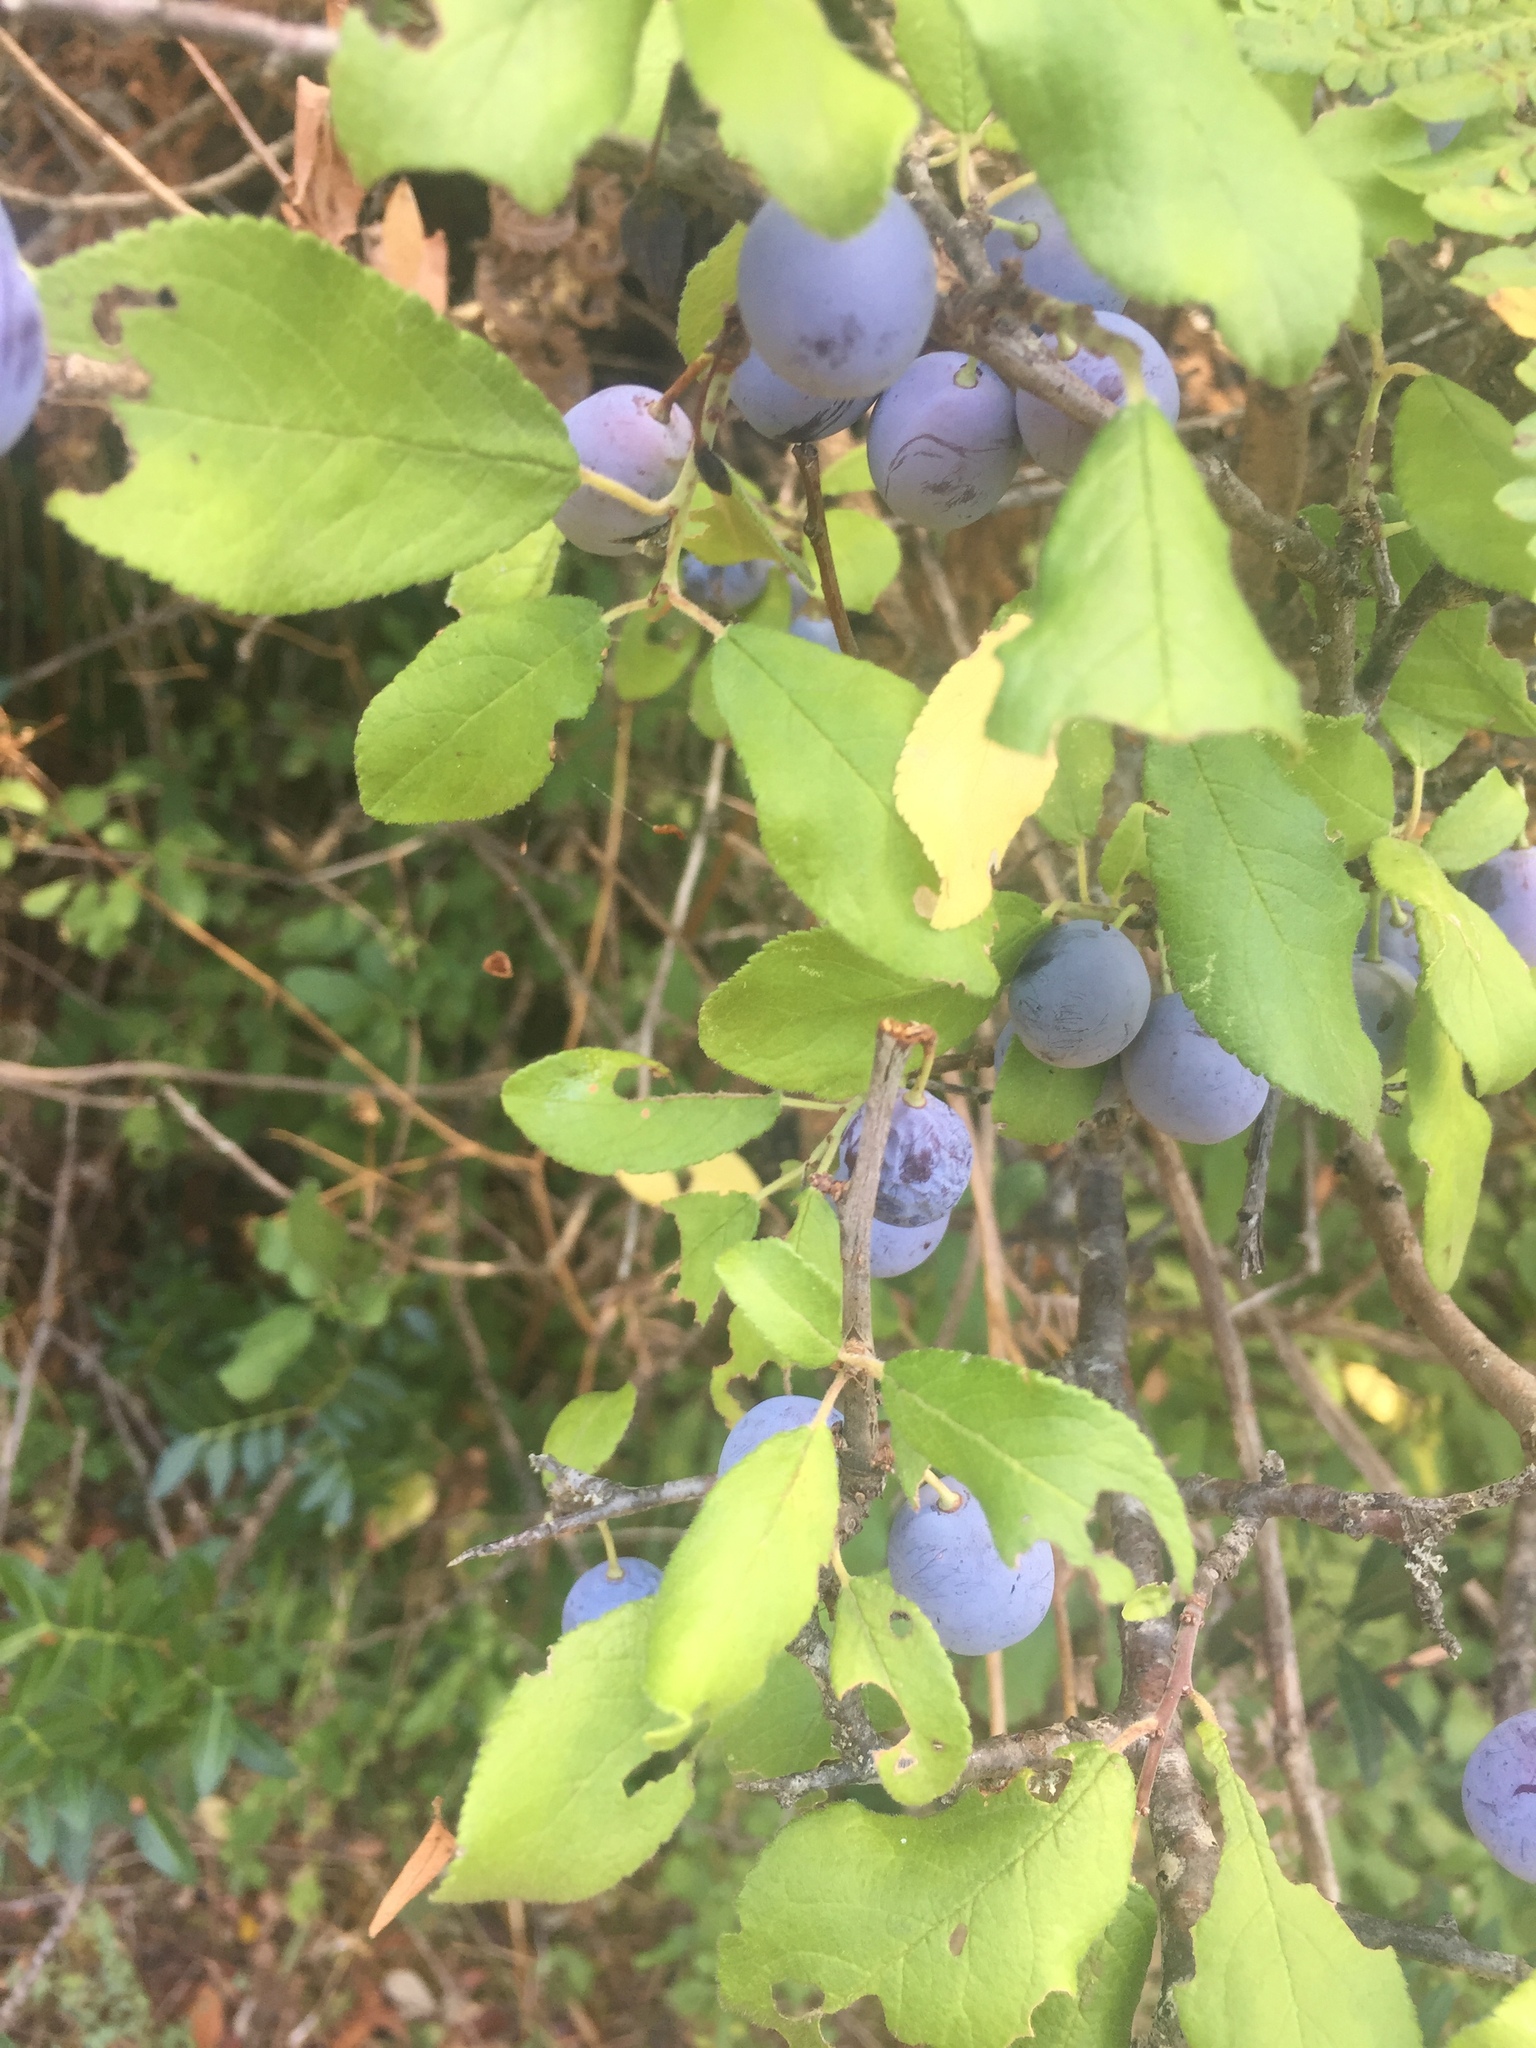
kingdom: Plantae
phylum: Tracheophyta
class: Magnoliopsida
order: Rosales
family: Rosaceae
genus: Prunus
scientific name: Prunus spinosa
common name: Blackthorn
